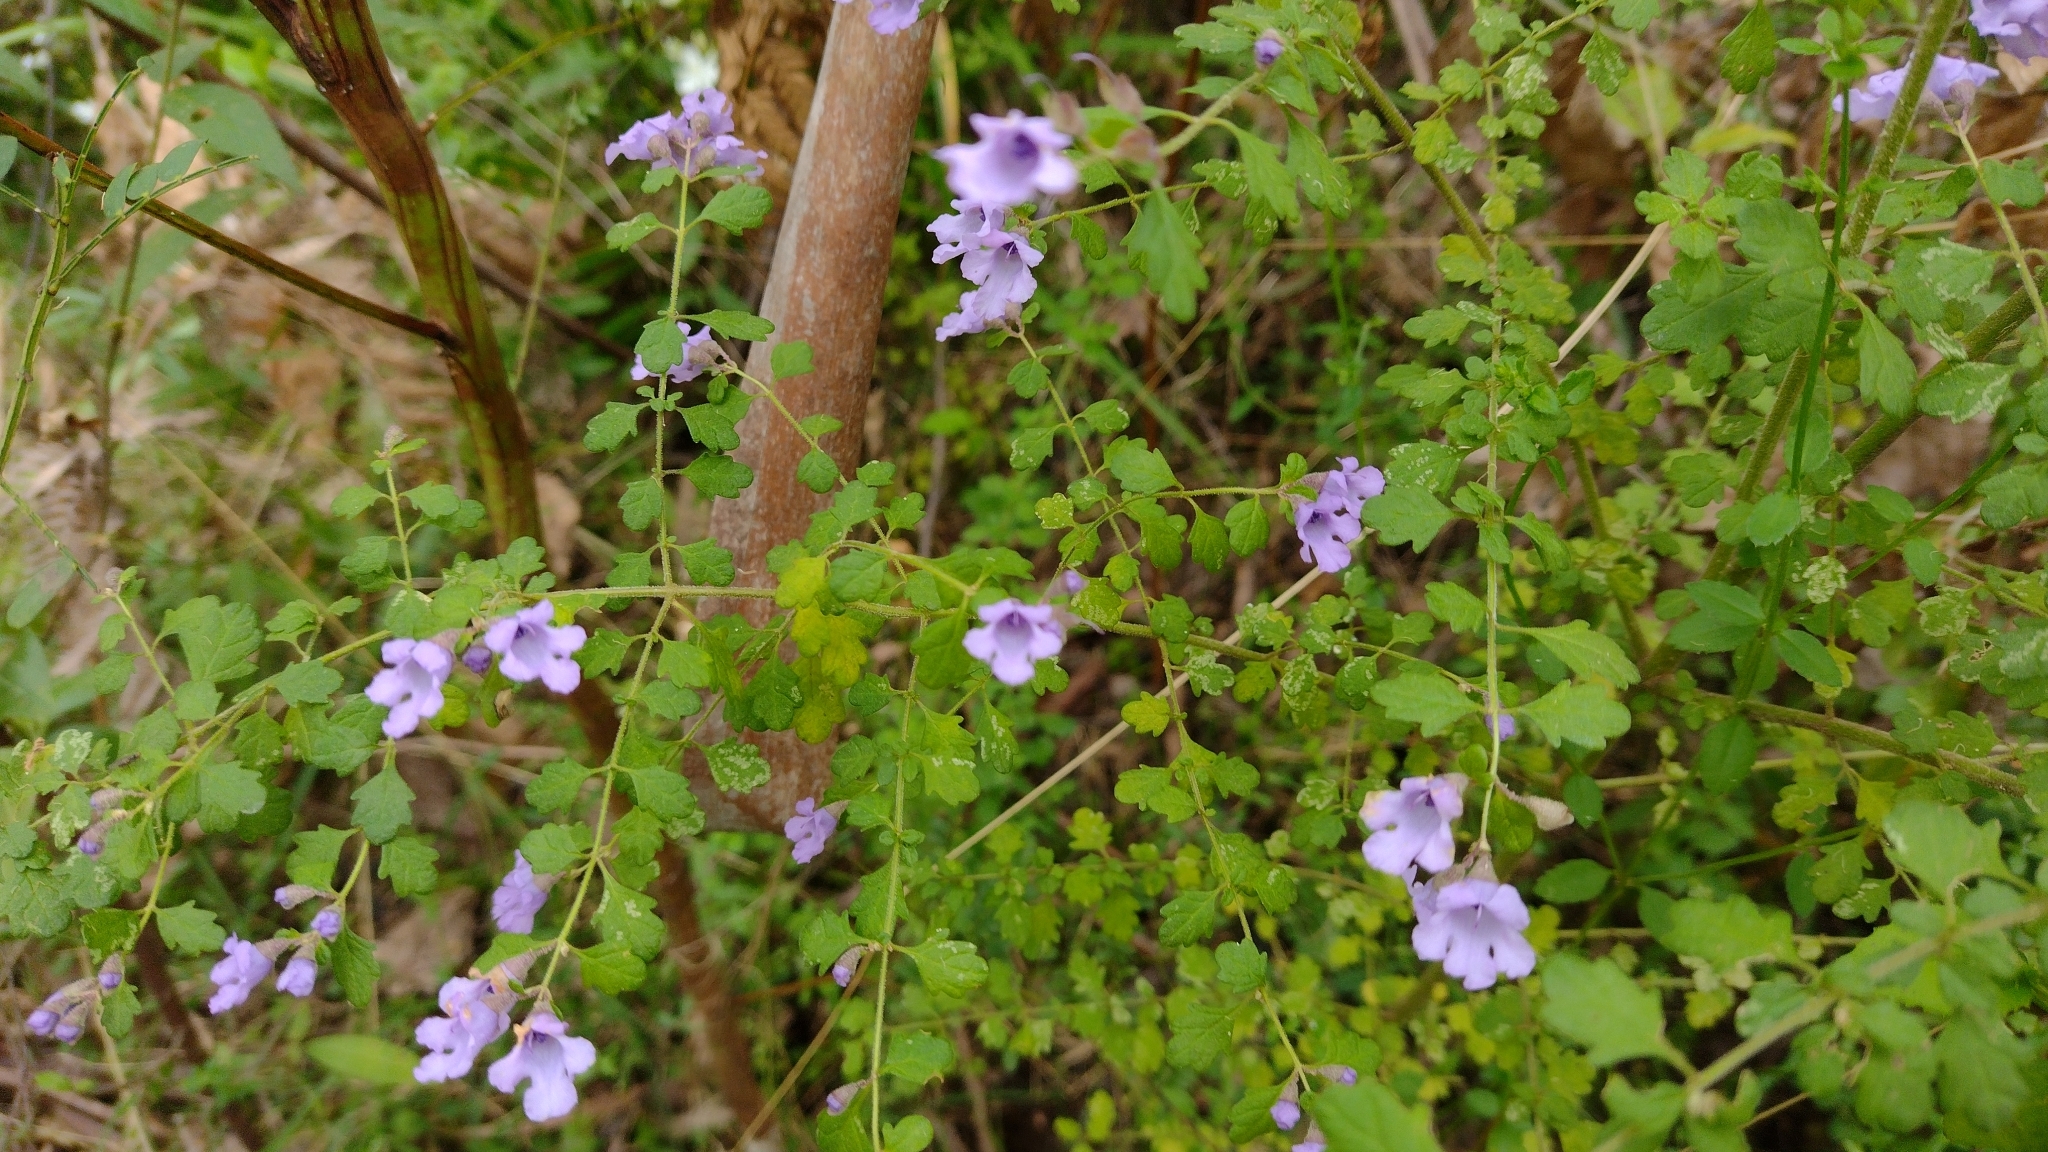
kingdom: Plantae
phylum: Tracheophyta
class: Magnoliopsida
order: Lamiales
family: Lamiaceae
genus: Prostanthera
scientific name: Prostanthera incisa
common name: Cut-leaf mintbush
